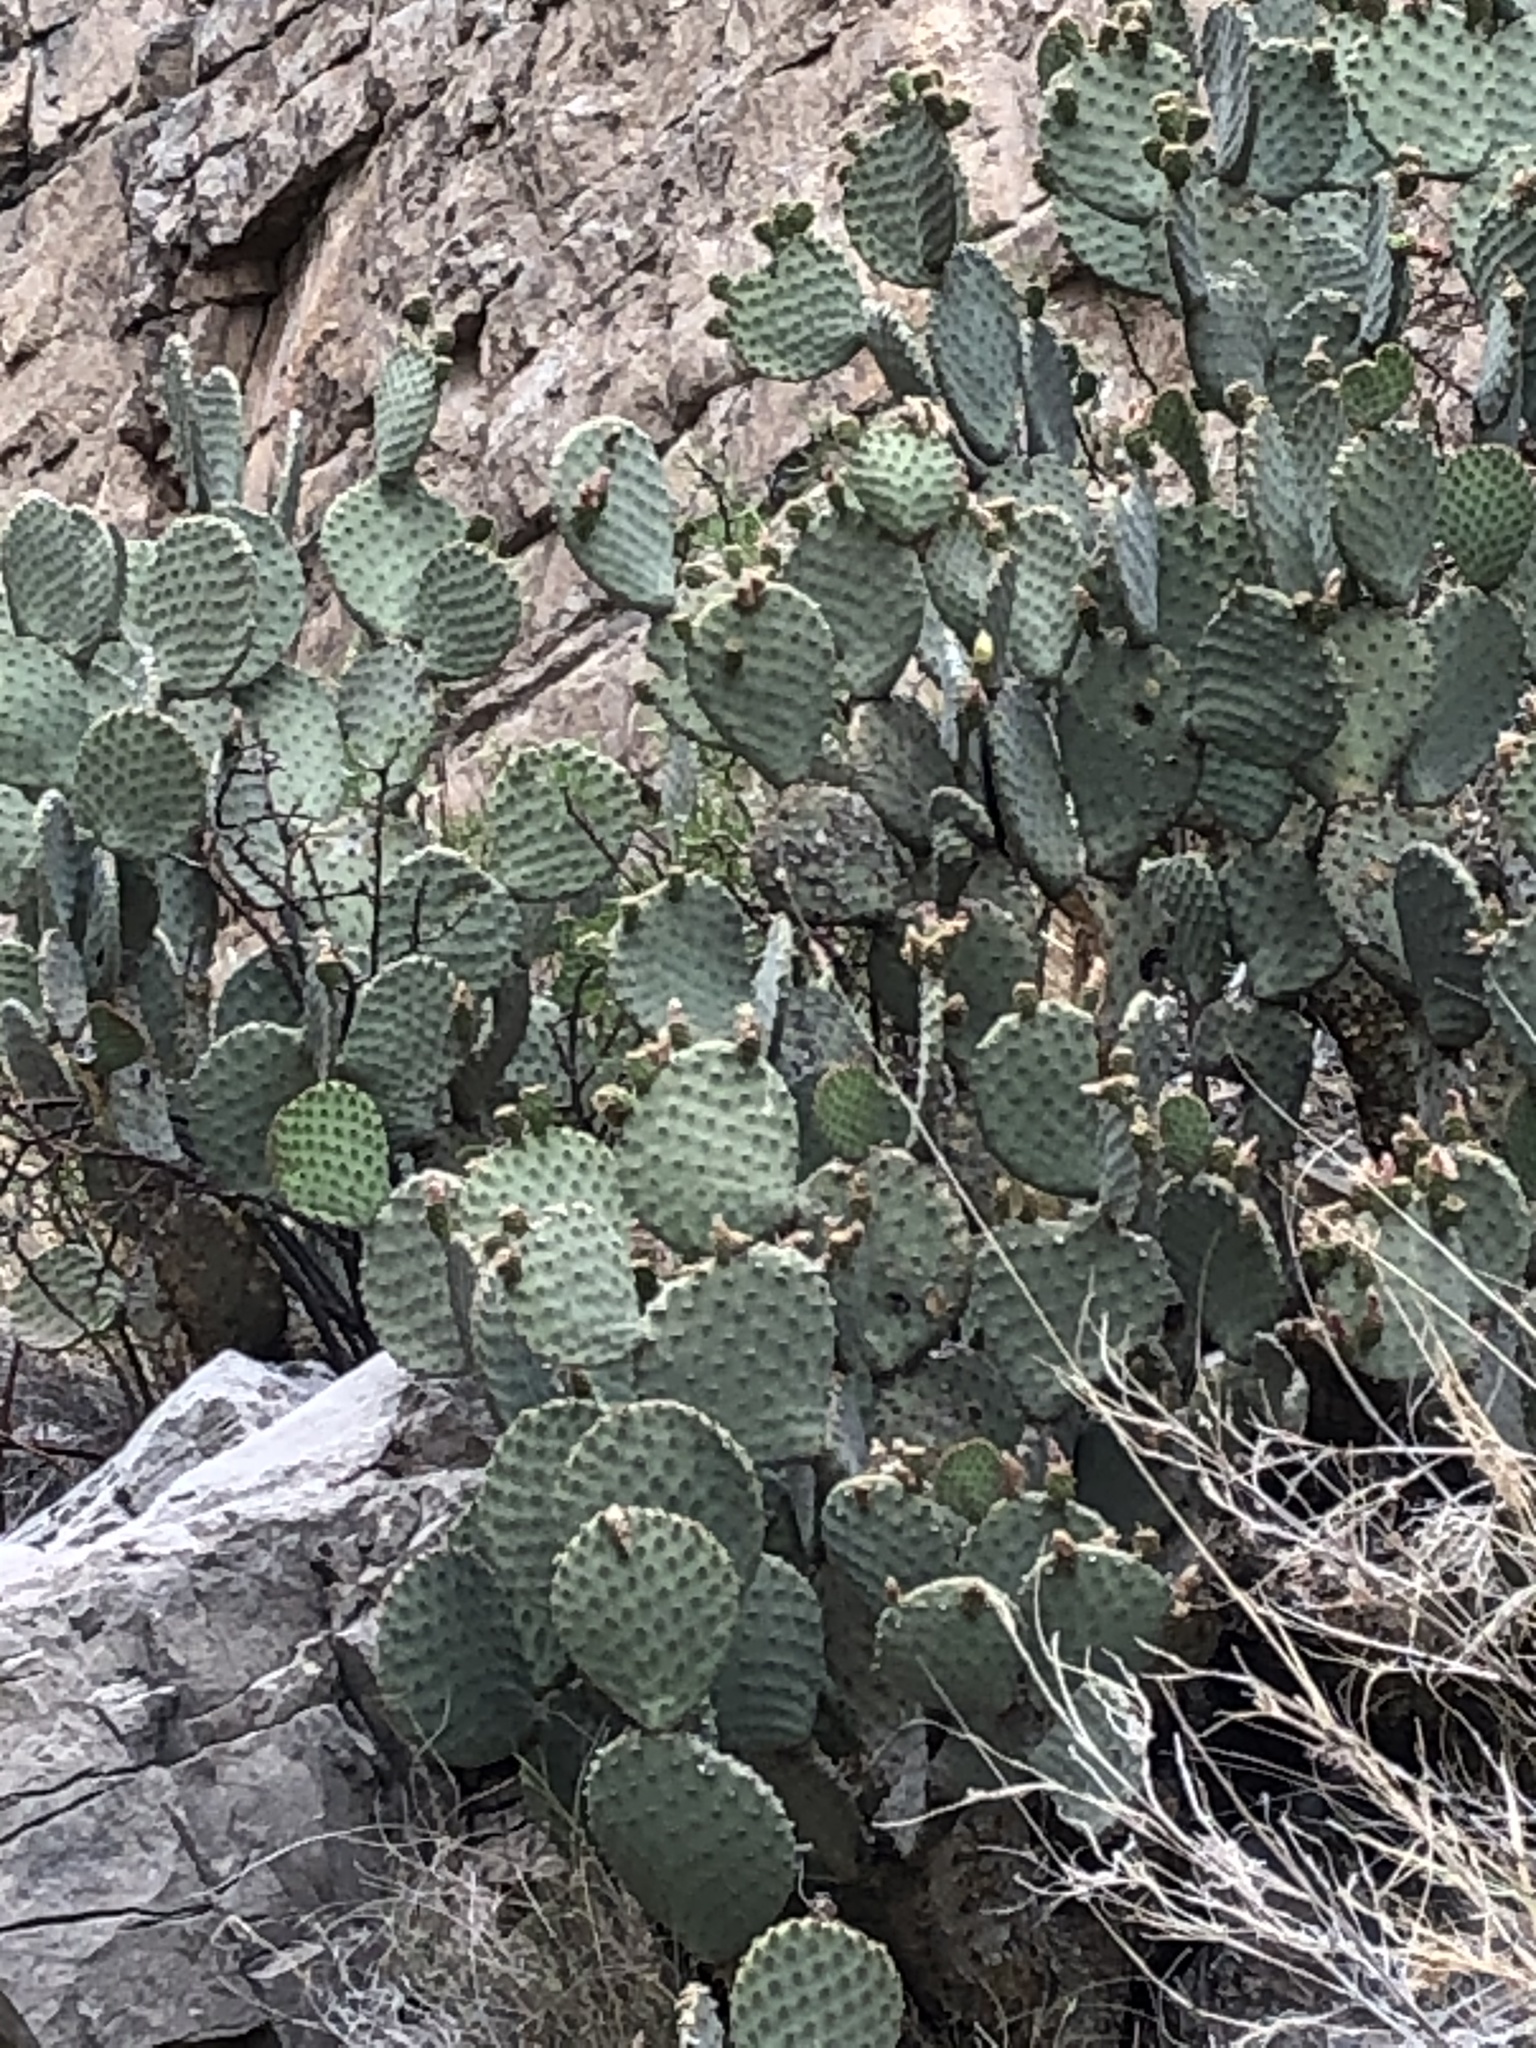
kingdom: Plantae
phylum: Tracheophyta
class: Magnoliopsida
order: Caryophyllales
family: Cactaceae
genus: Opuntia
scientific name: Opuntia rufida
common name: Blind pricklypear
